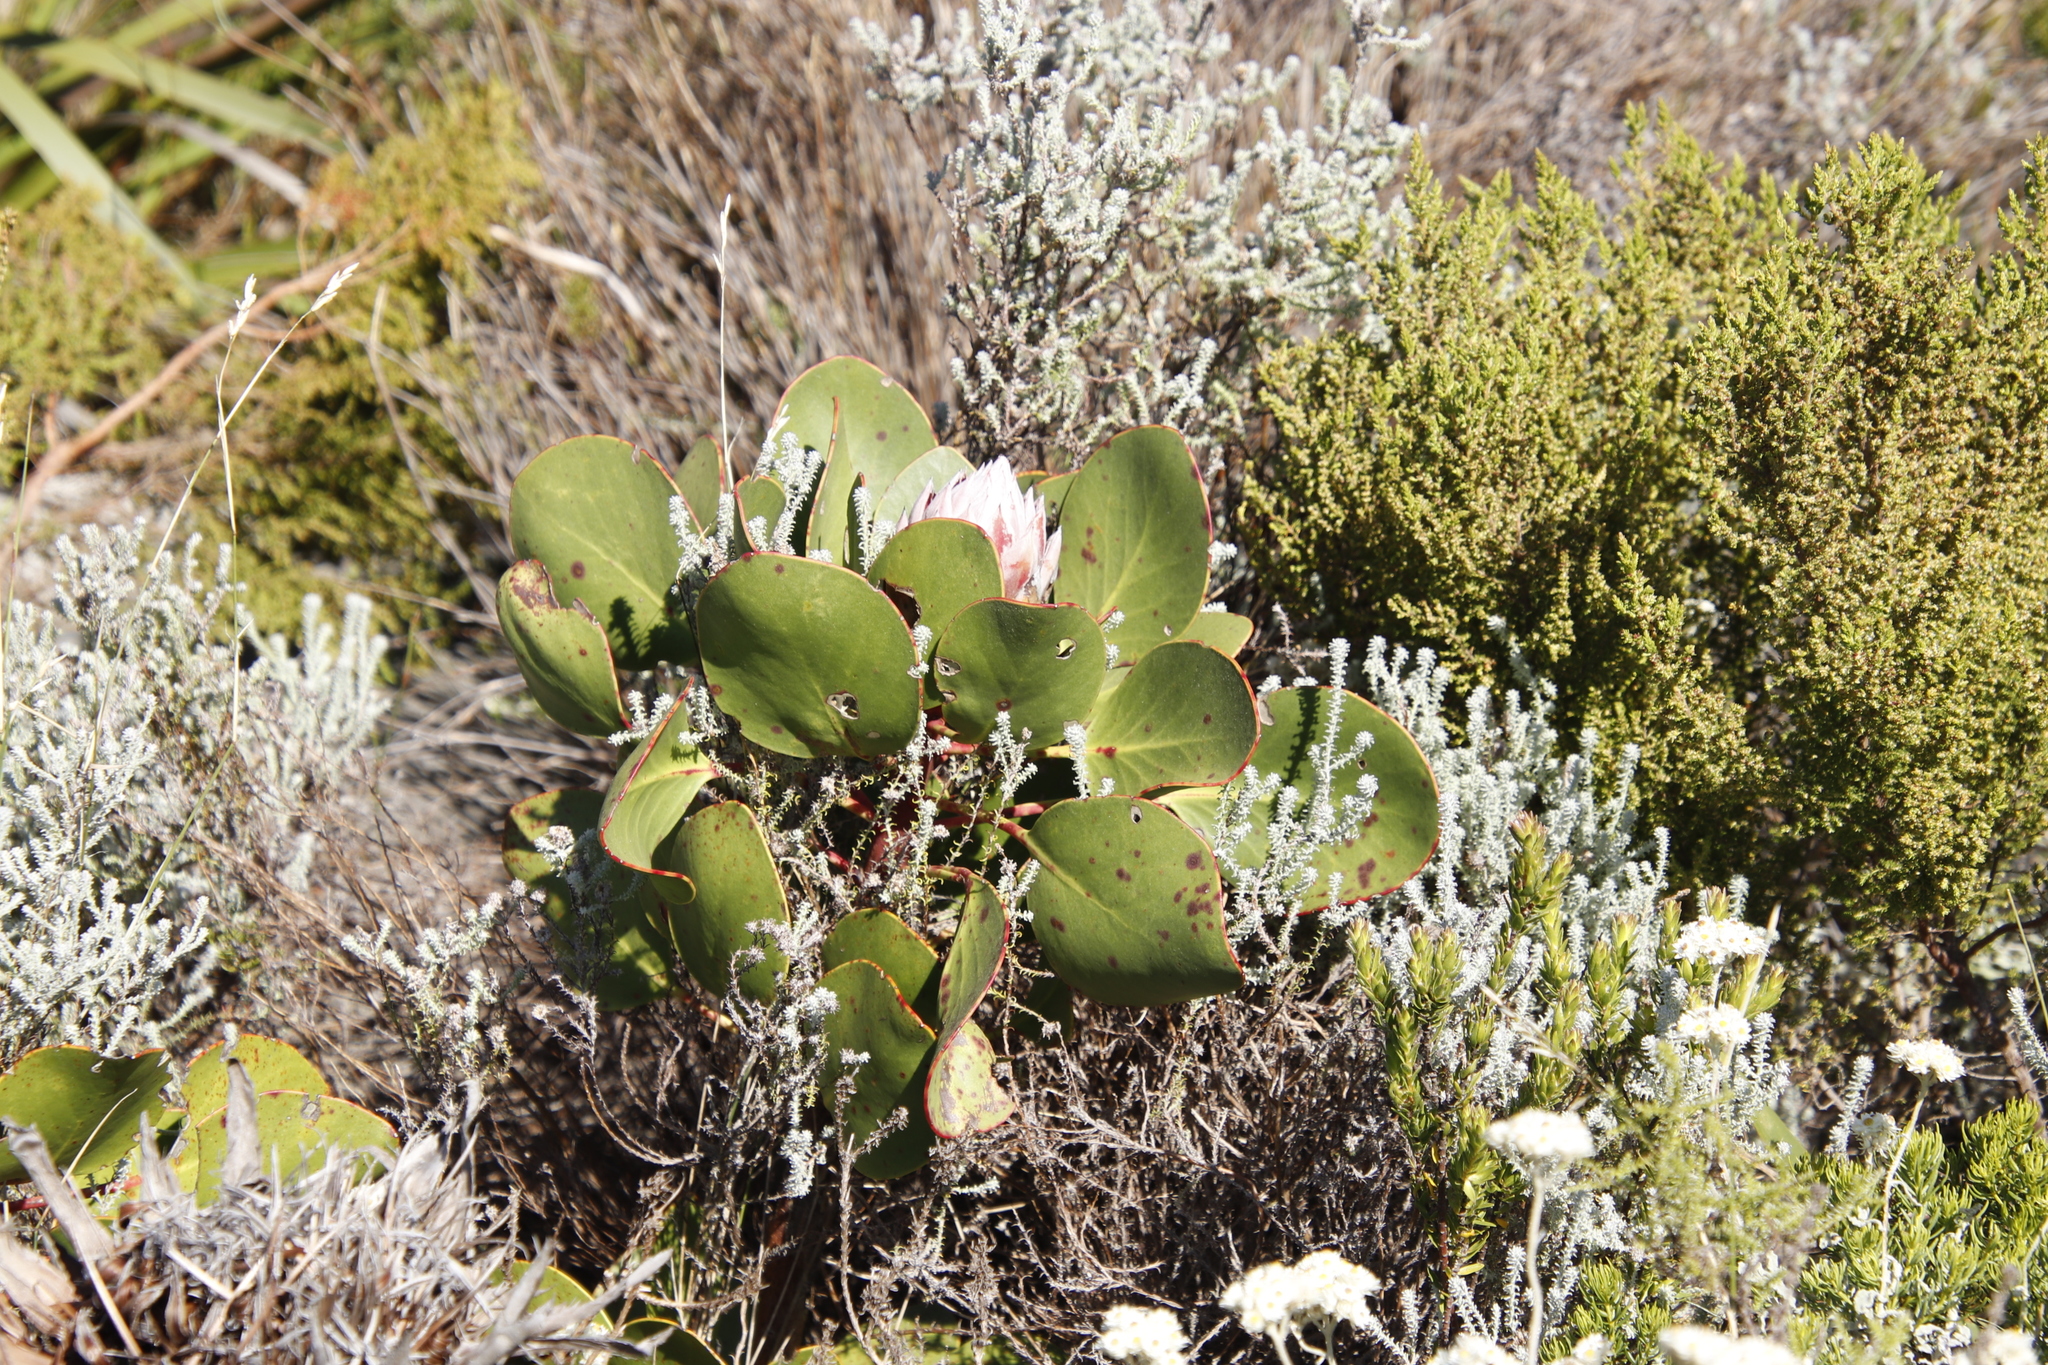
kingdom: Plantae
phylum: Tracheophyta
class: Magnoliopsida
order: Proteales
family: Proteaceae
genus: Protea
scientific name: Protea cynaroides
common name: King protea
